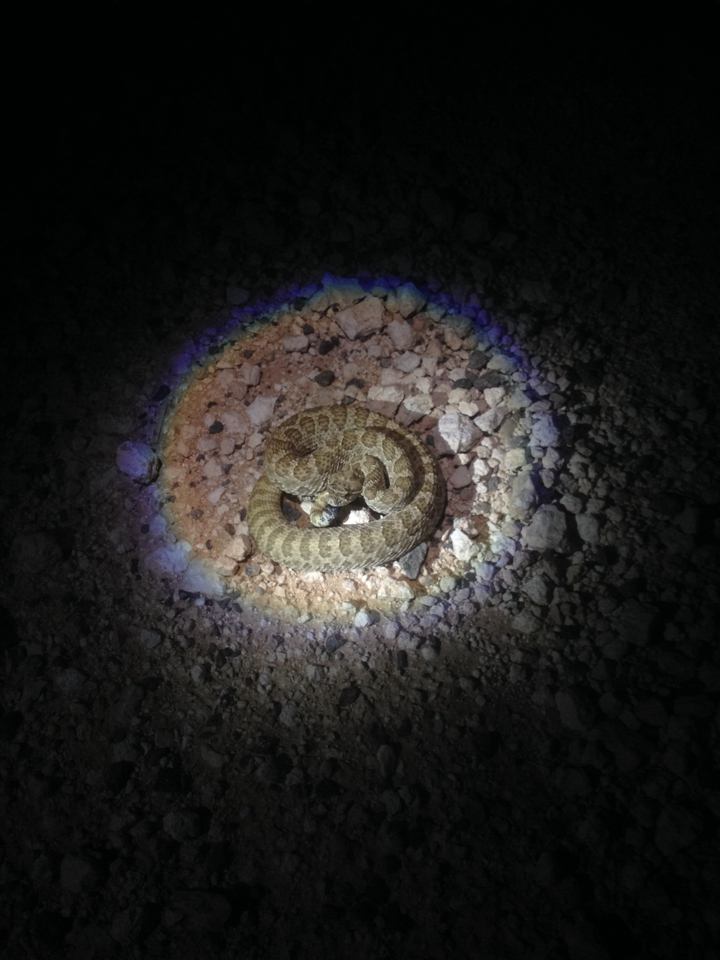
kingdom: Animalia
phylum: Chordata
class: Squamata
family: Viperidae
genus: Crotalus
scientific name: Crotalus viridis
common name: Prairie rattlesnake
